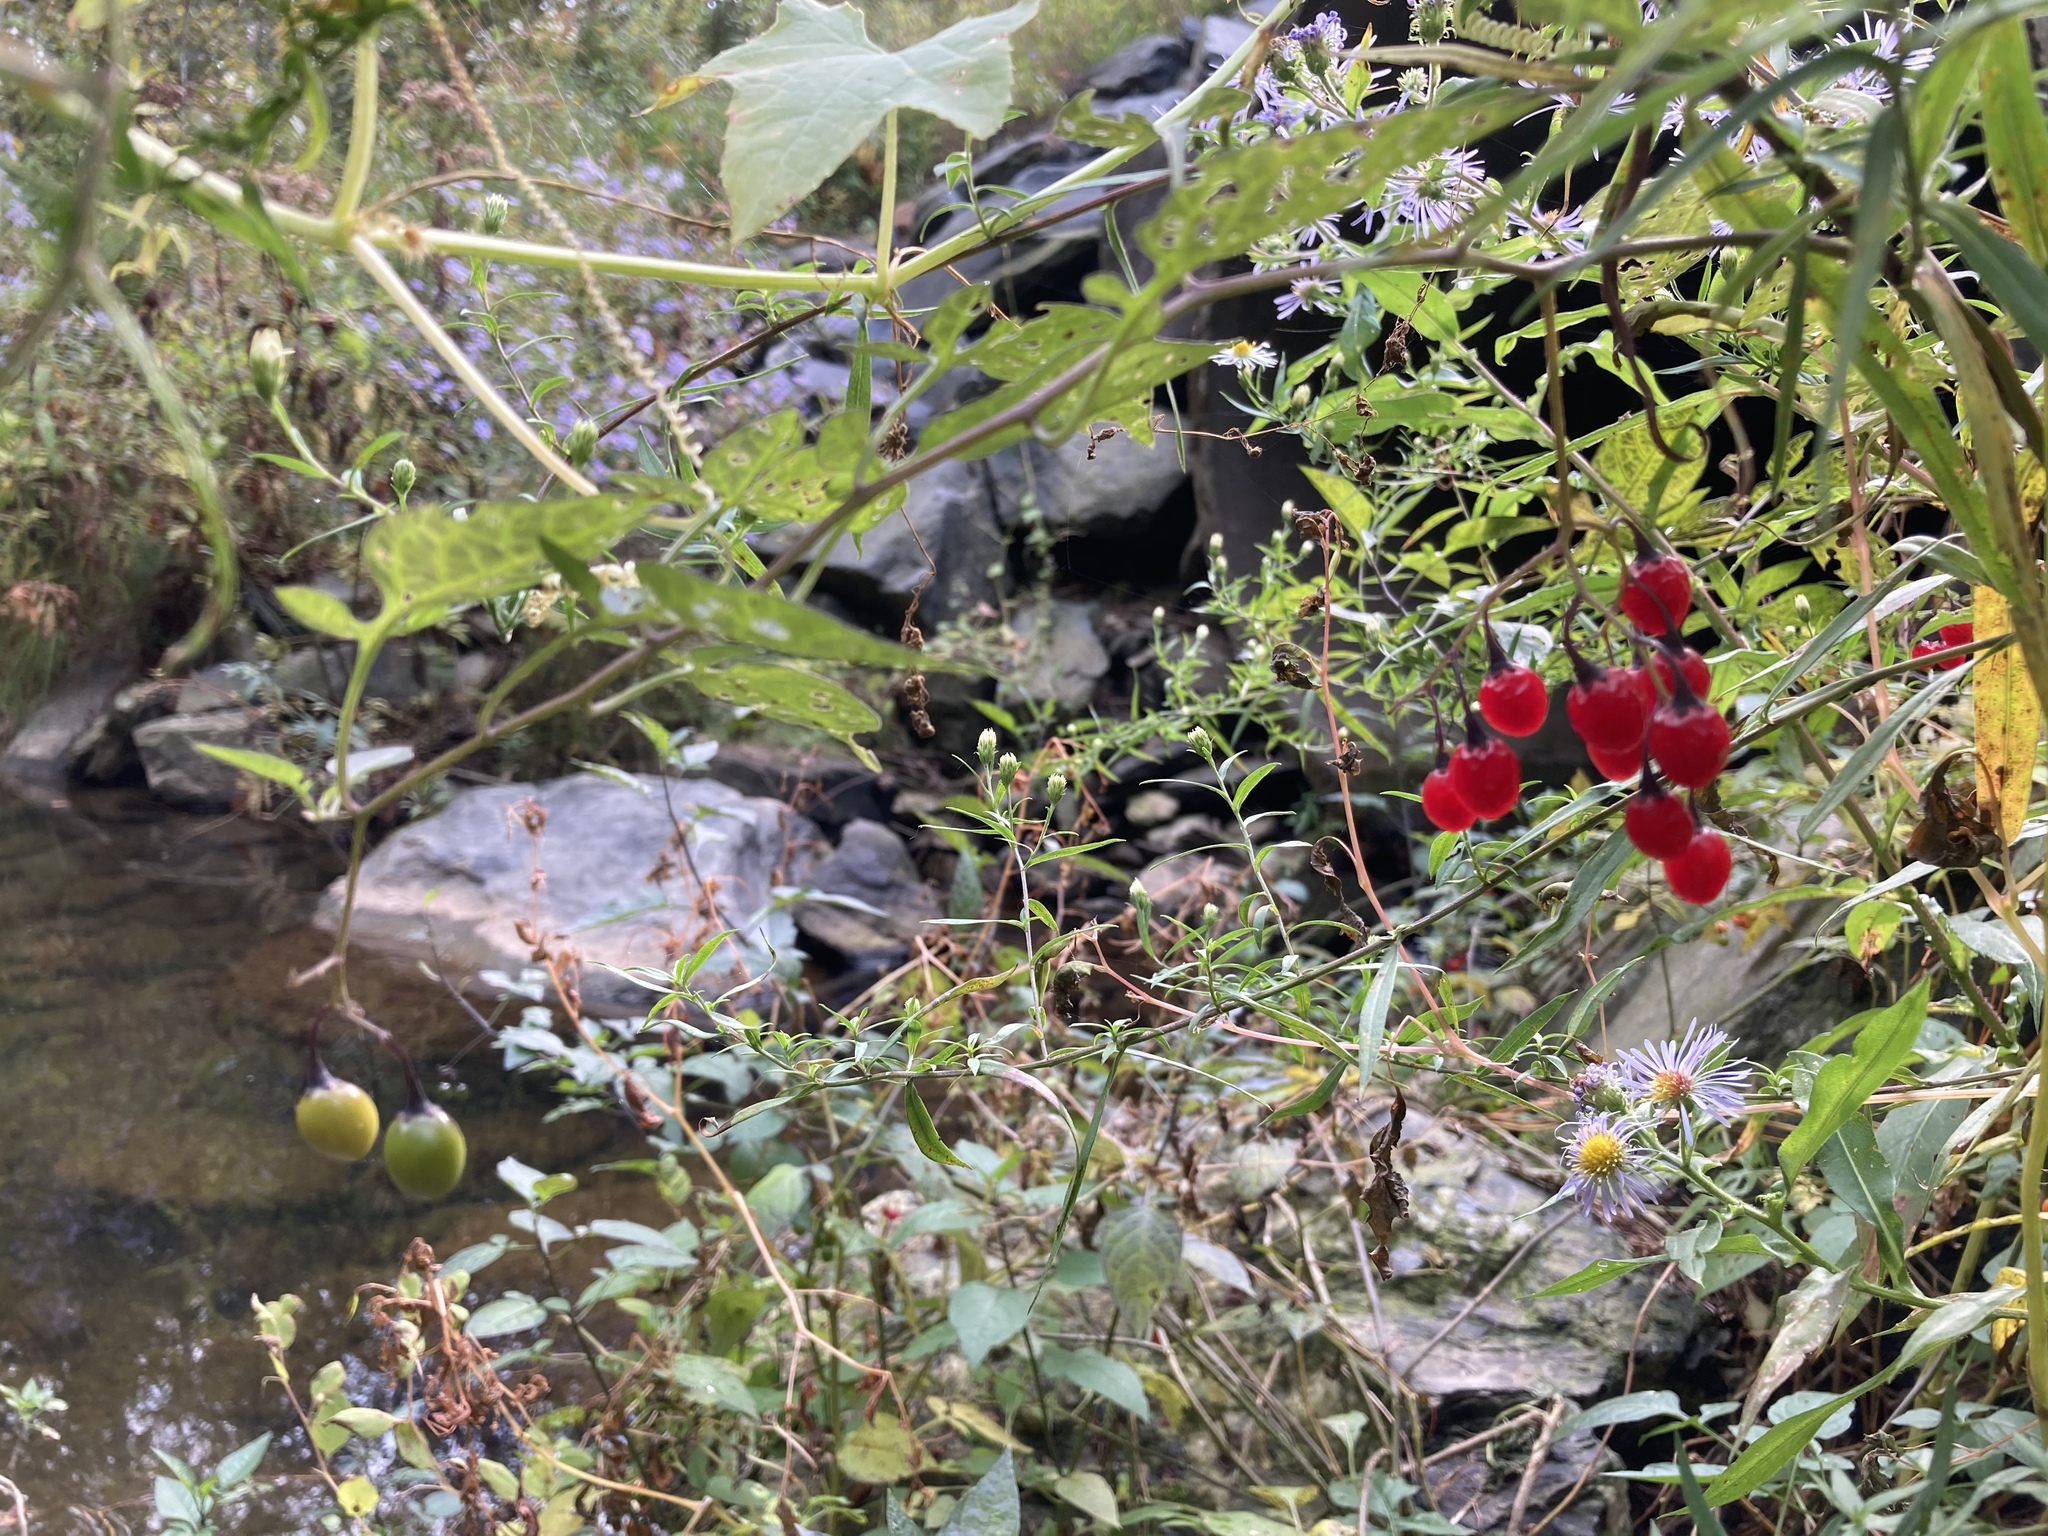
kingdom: Plantae
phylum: Tracheophyta
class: Magnoliopsida
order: Solanales
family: Solanaceae
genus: Solanum
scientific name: Solanum dulcamara
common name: Climbing nightshade
